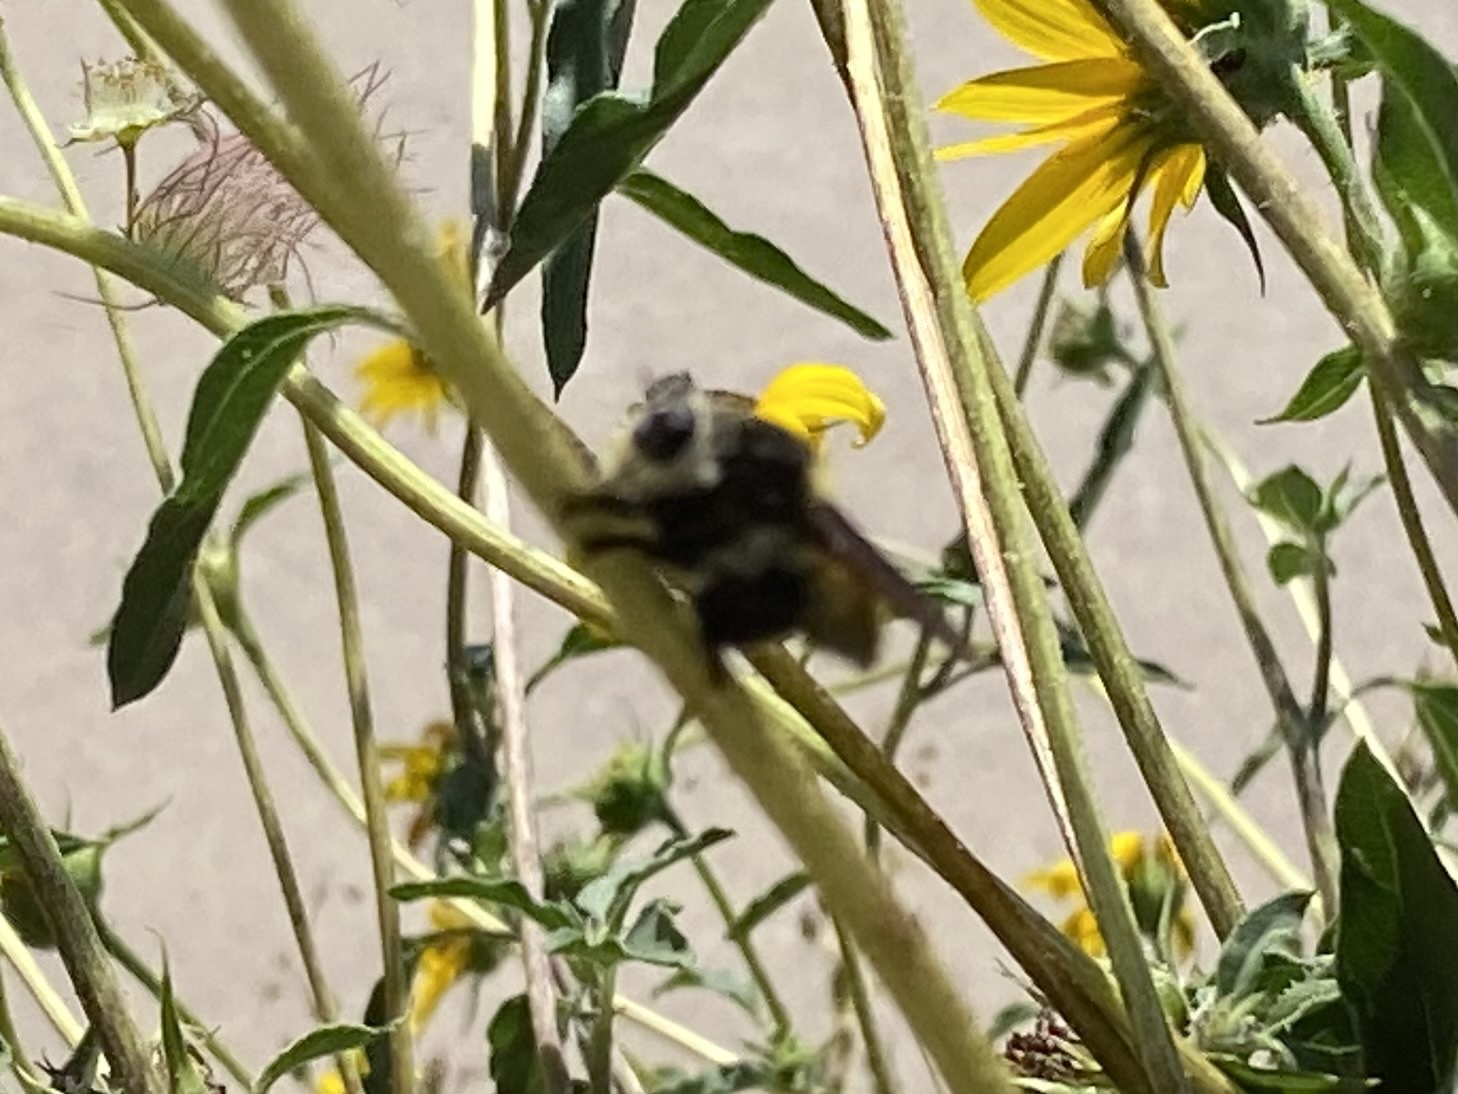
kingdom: Animalia
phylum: Arthropoda
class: Insecta
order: Diptera
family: Asilidae
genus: Mallophora
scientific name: Mallophora fautrix
